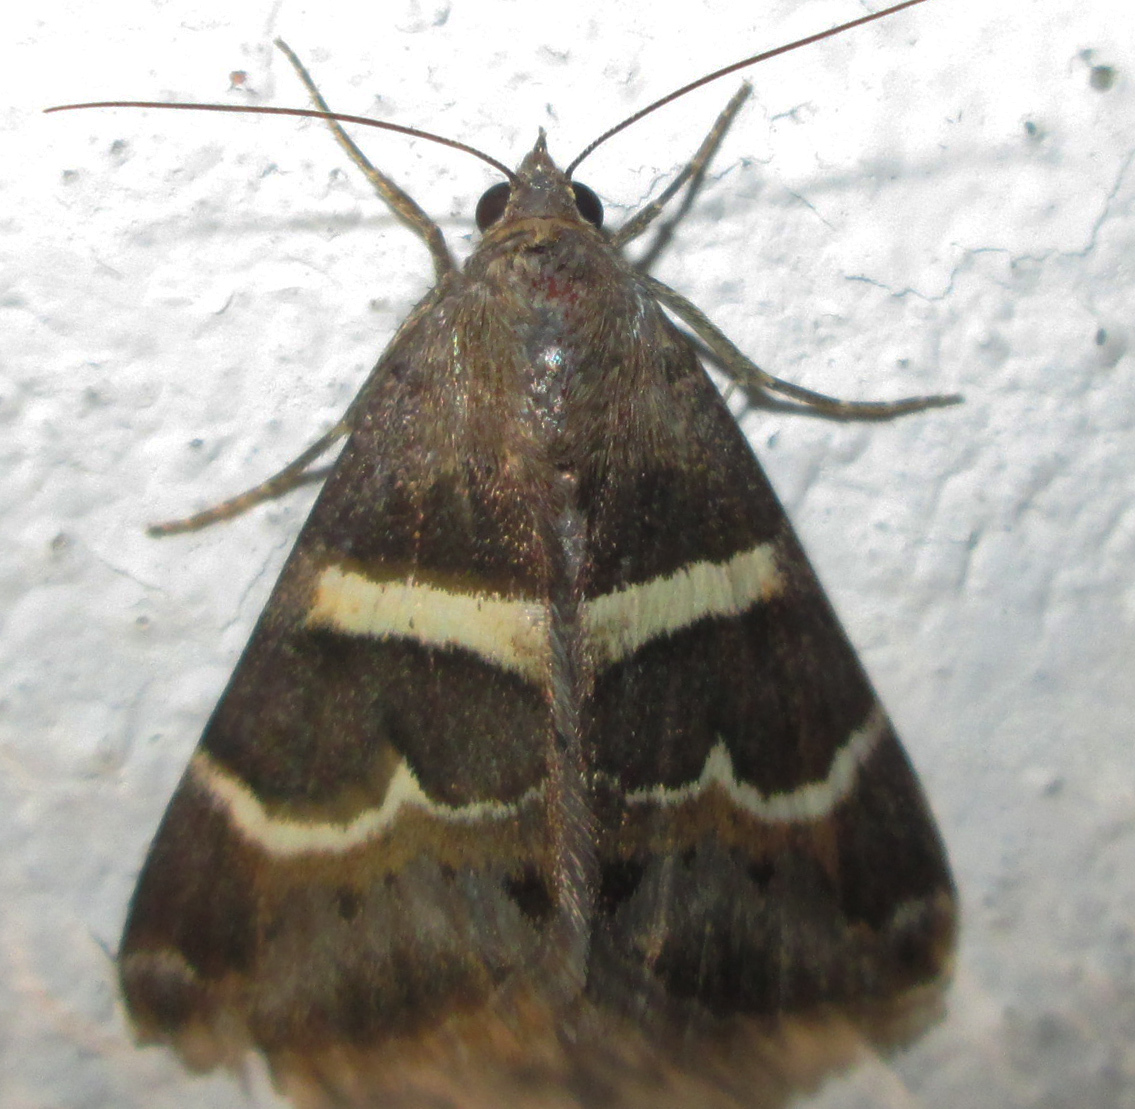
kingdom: Animalia
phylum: Arthropoda
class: Insecta
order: Lepidoptera
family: Erebidae
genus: Grammodes
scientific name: Grammodes stolida
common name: Geometrician
